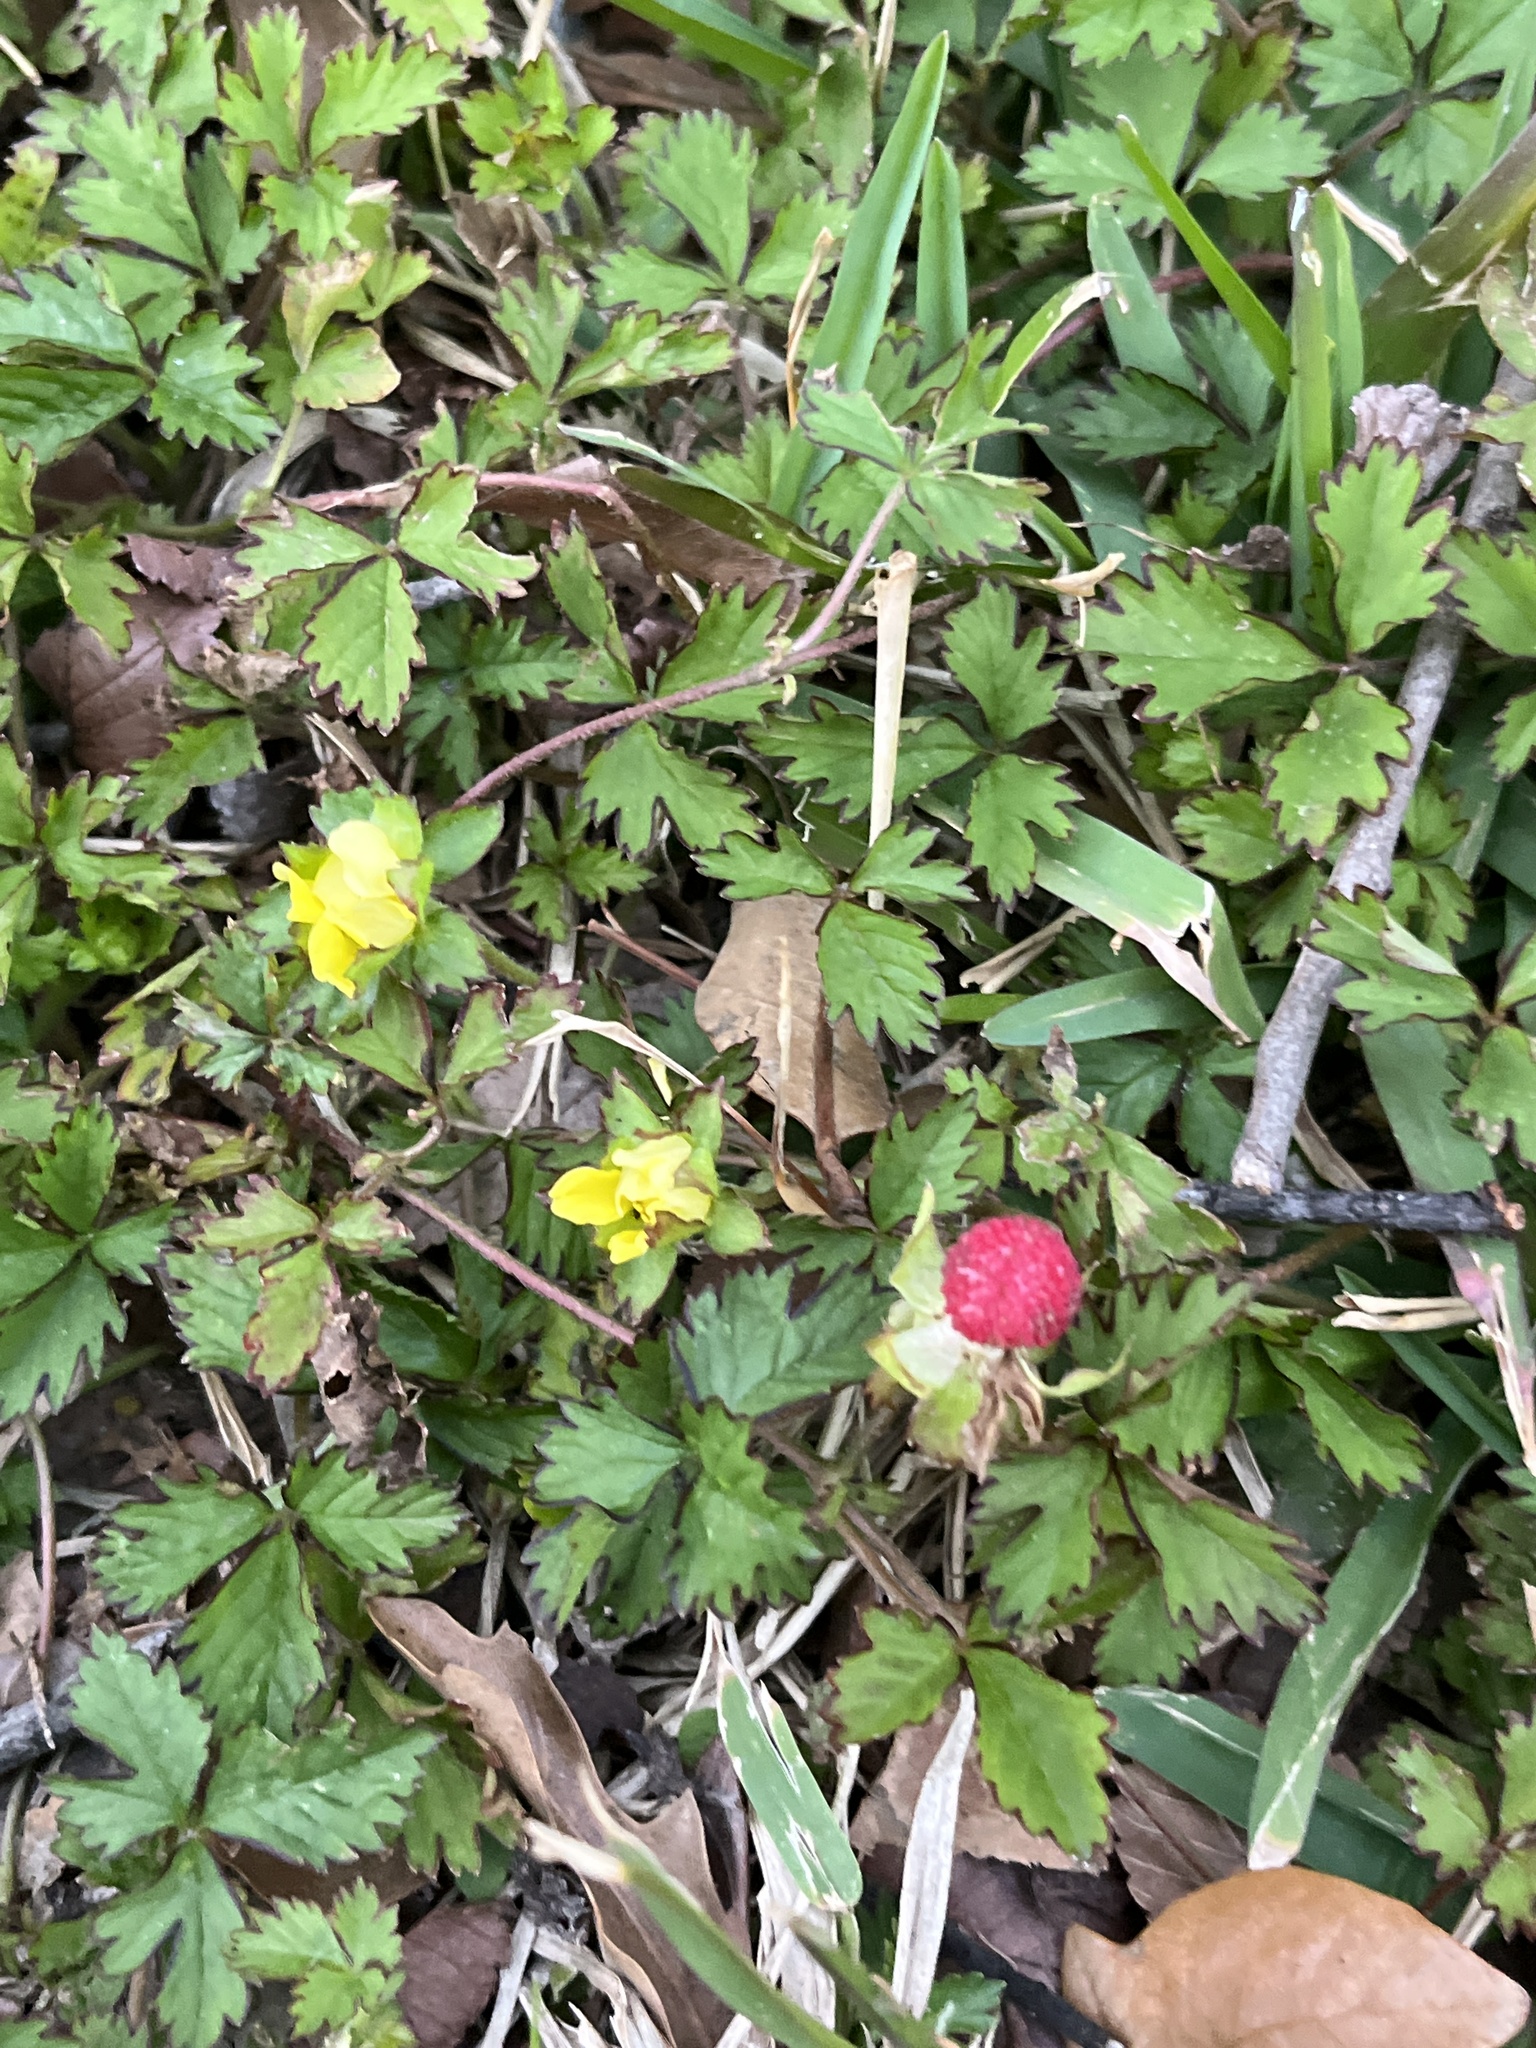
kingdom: Plantae
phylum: Tracheophyta
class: Magnoliopsida
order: Rosales
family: Rosaceae
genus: Potentilla
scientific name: Potentilla indica
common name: Yellow-flowered strawberry
